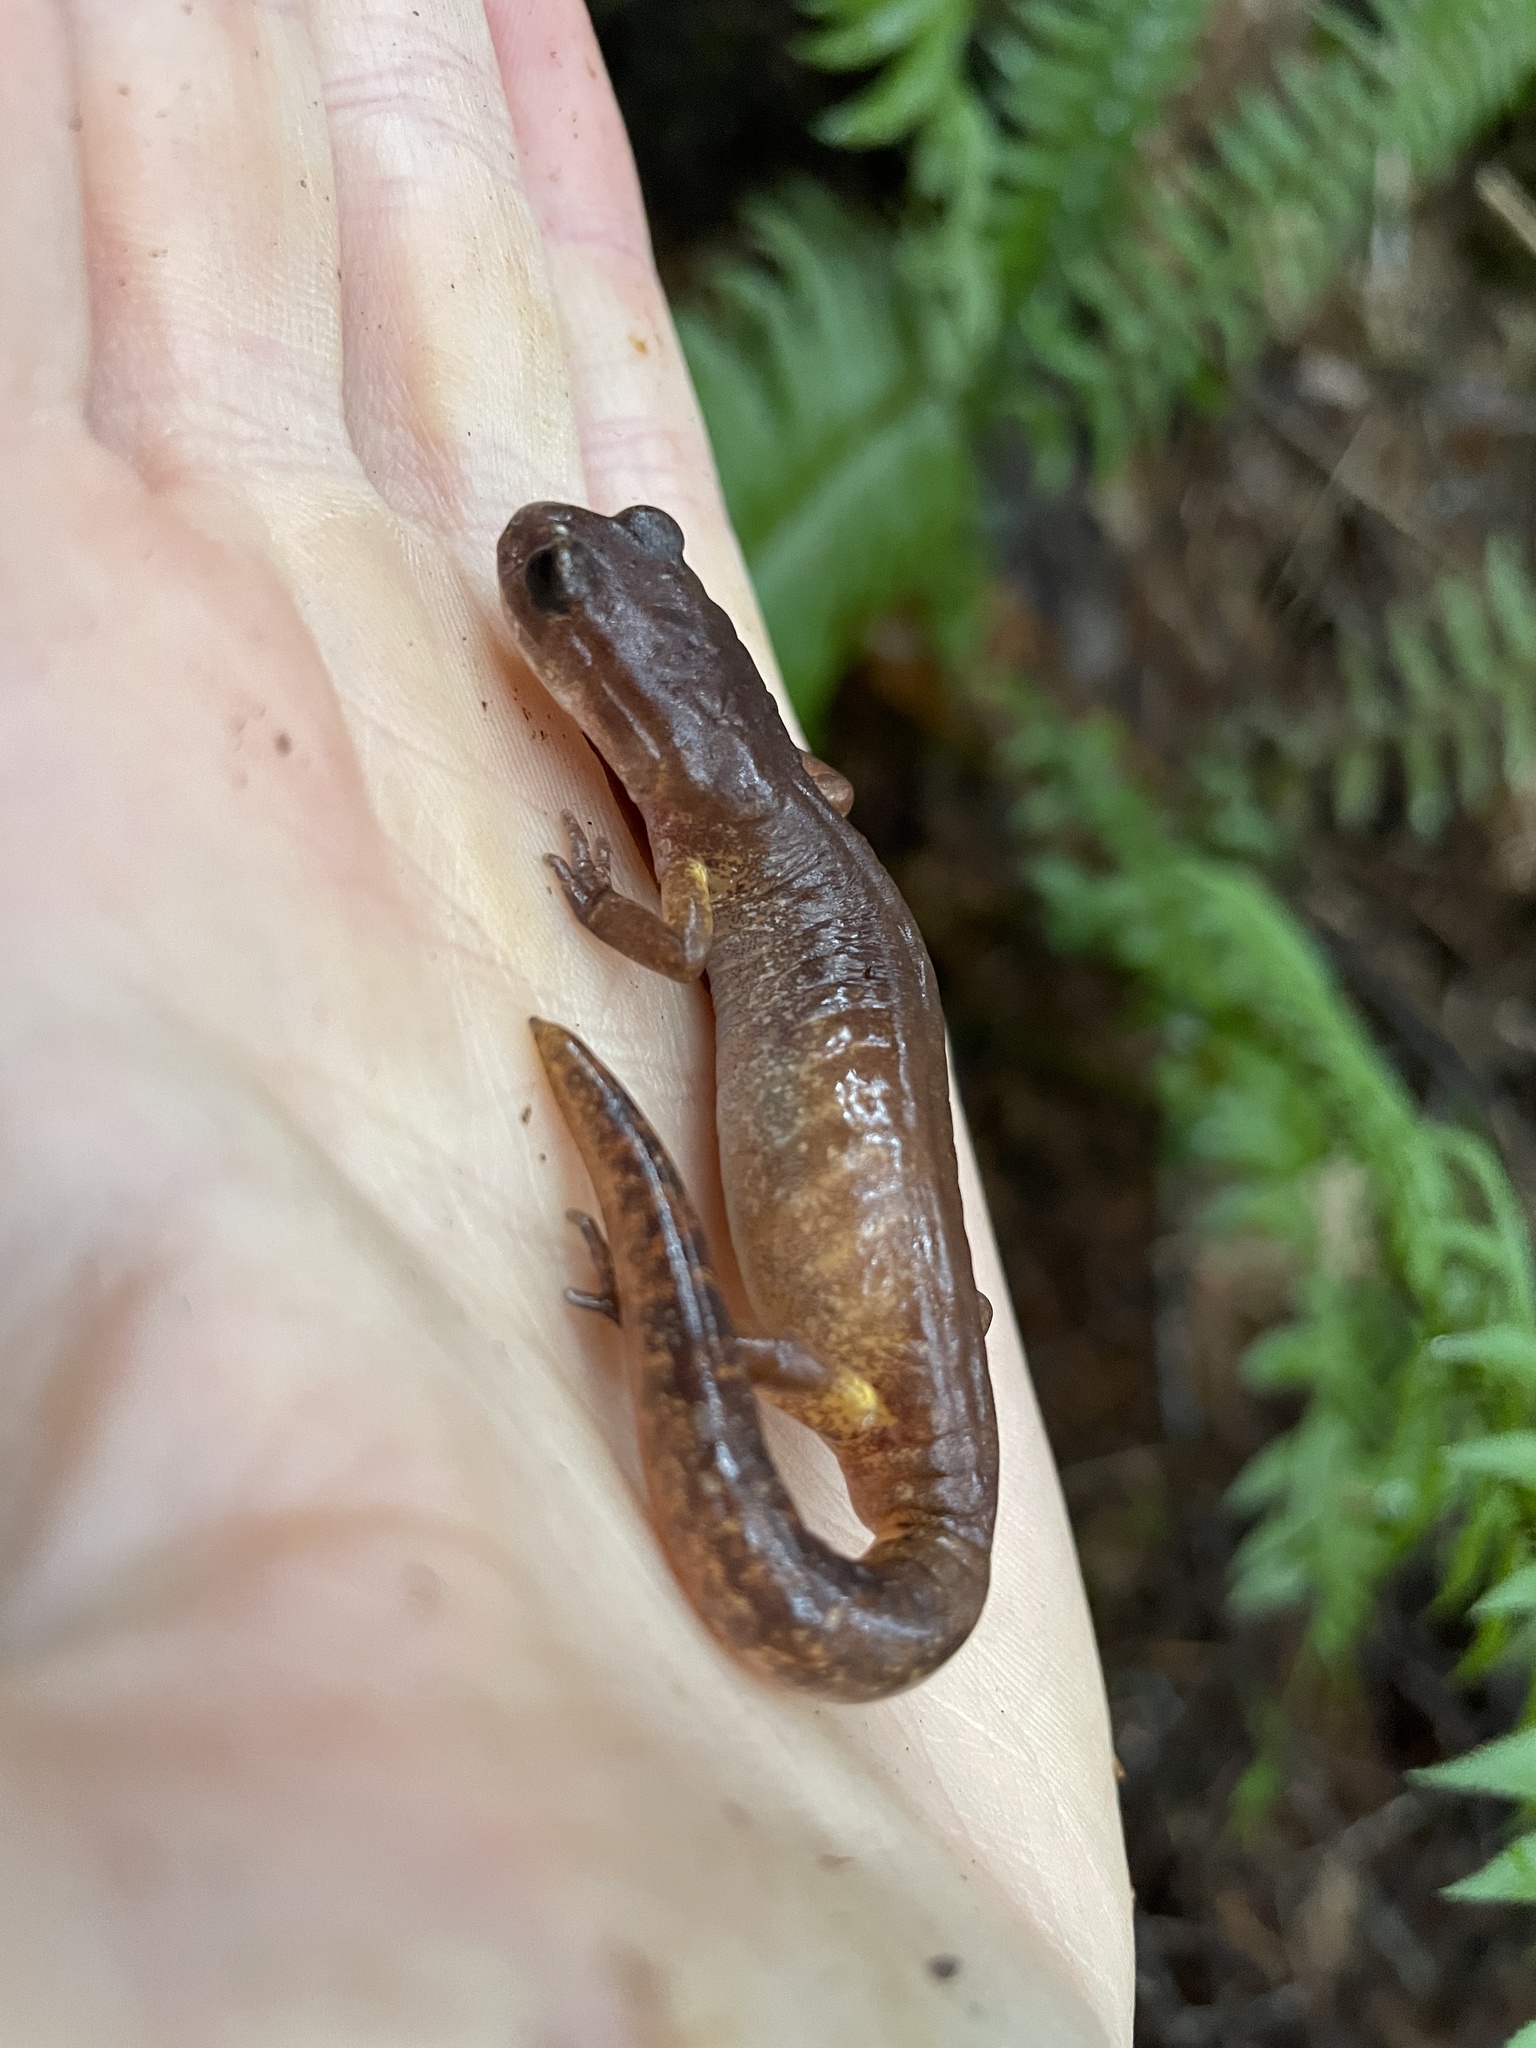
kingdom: Animalia
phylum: Chordata
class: Amphibia
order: Caudata
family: Plethodontidae
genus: Ensatina
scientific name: Ensatina eschscholtzii
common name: Ensatina
